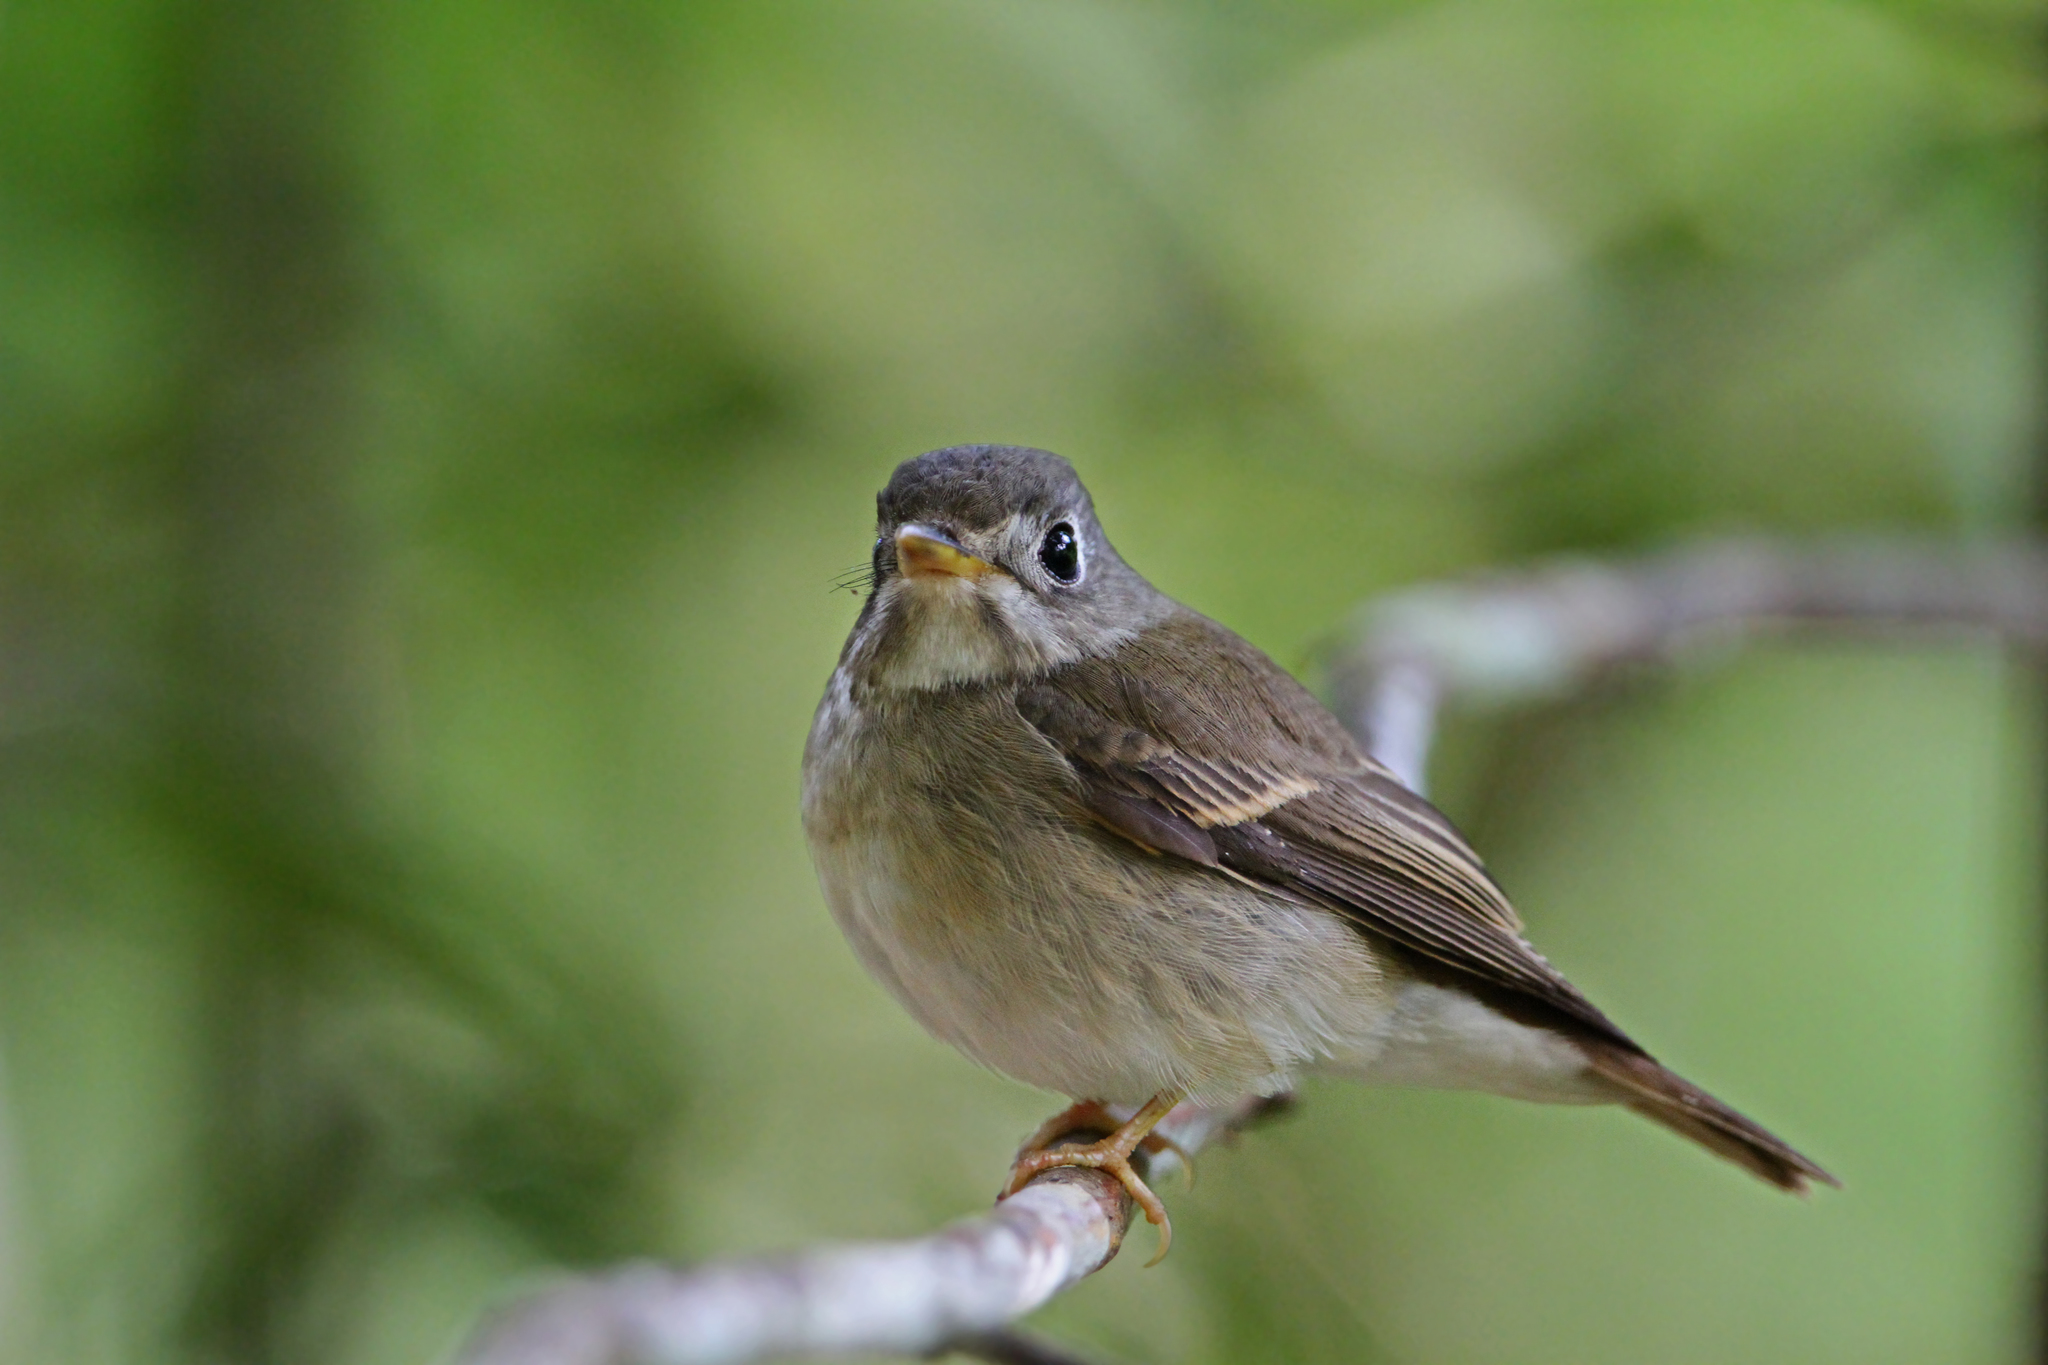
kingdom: Animalia
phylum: Chordata
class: Aves
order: Passeriformes
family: Muscicapidae
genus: Muscicapa
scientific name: Muscicapa muttui
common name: Brown-breasted flycatcher
